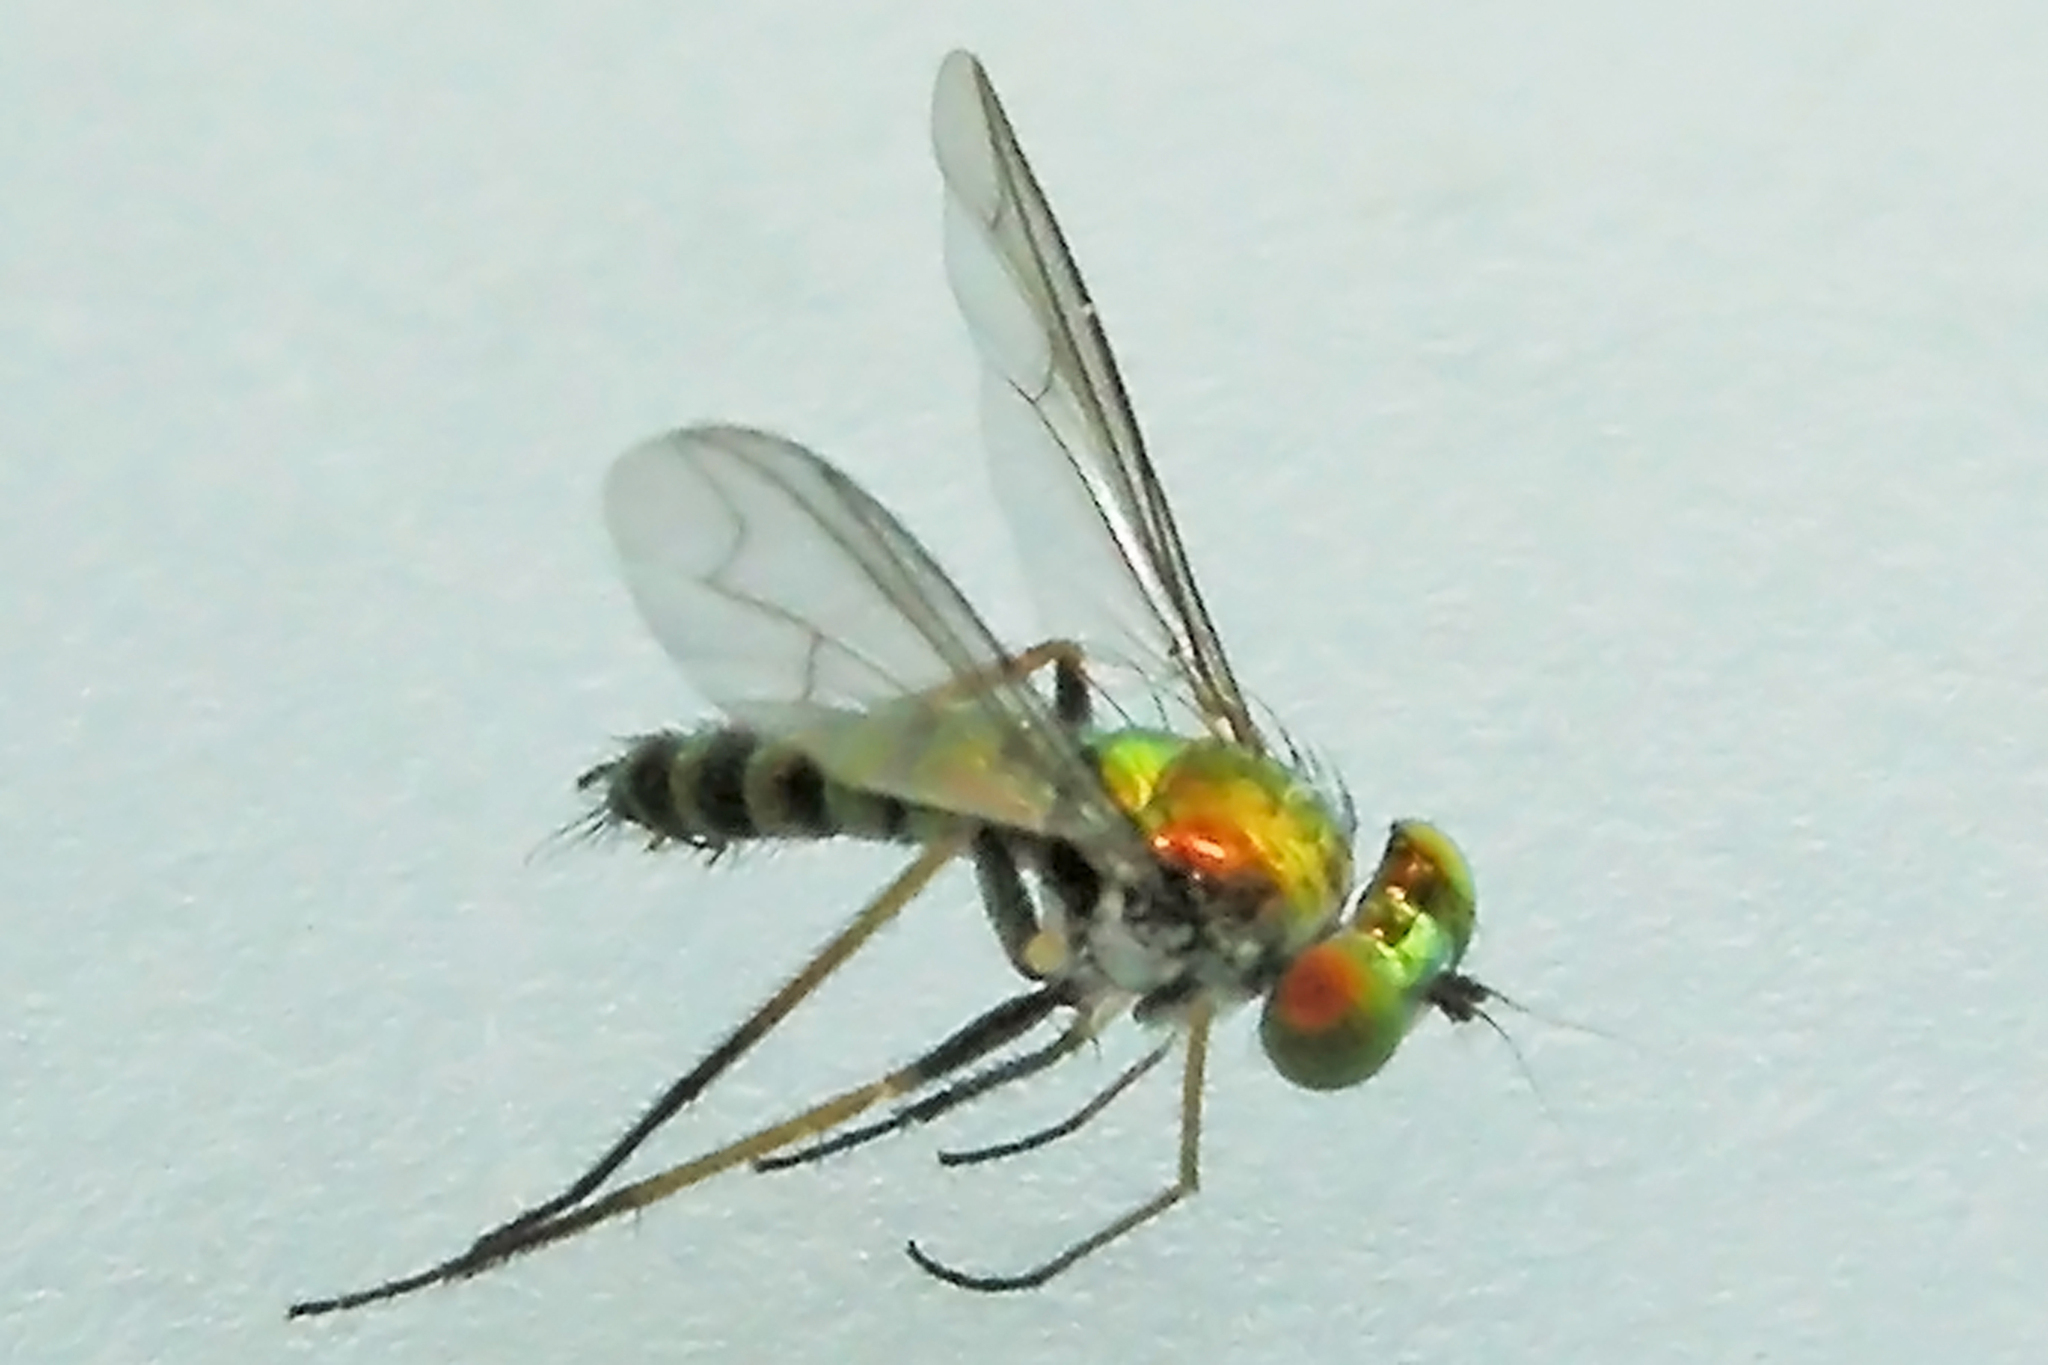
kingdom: Animalia
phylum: Arthropoda
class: Insecta
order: Diptera
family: Dolichopodidae
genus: Condylostylus
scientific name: Condylostylus caudatus
